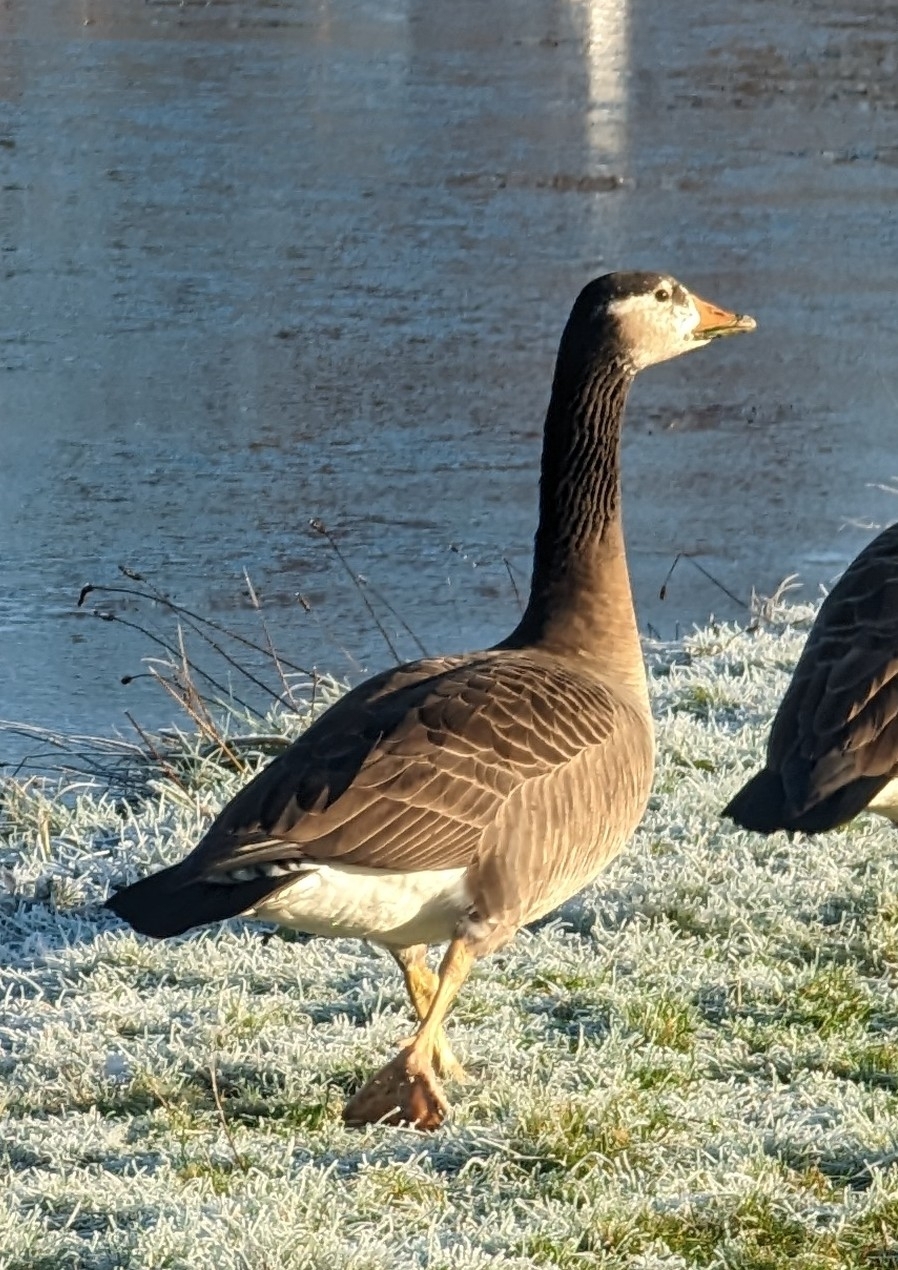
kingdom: Animalia
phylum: Chordata
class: Aves
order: Anseriformes
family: Anatidae
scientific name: Anatidae
